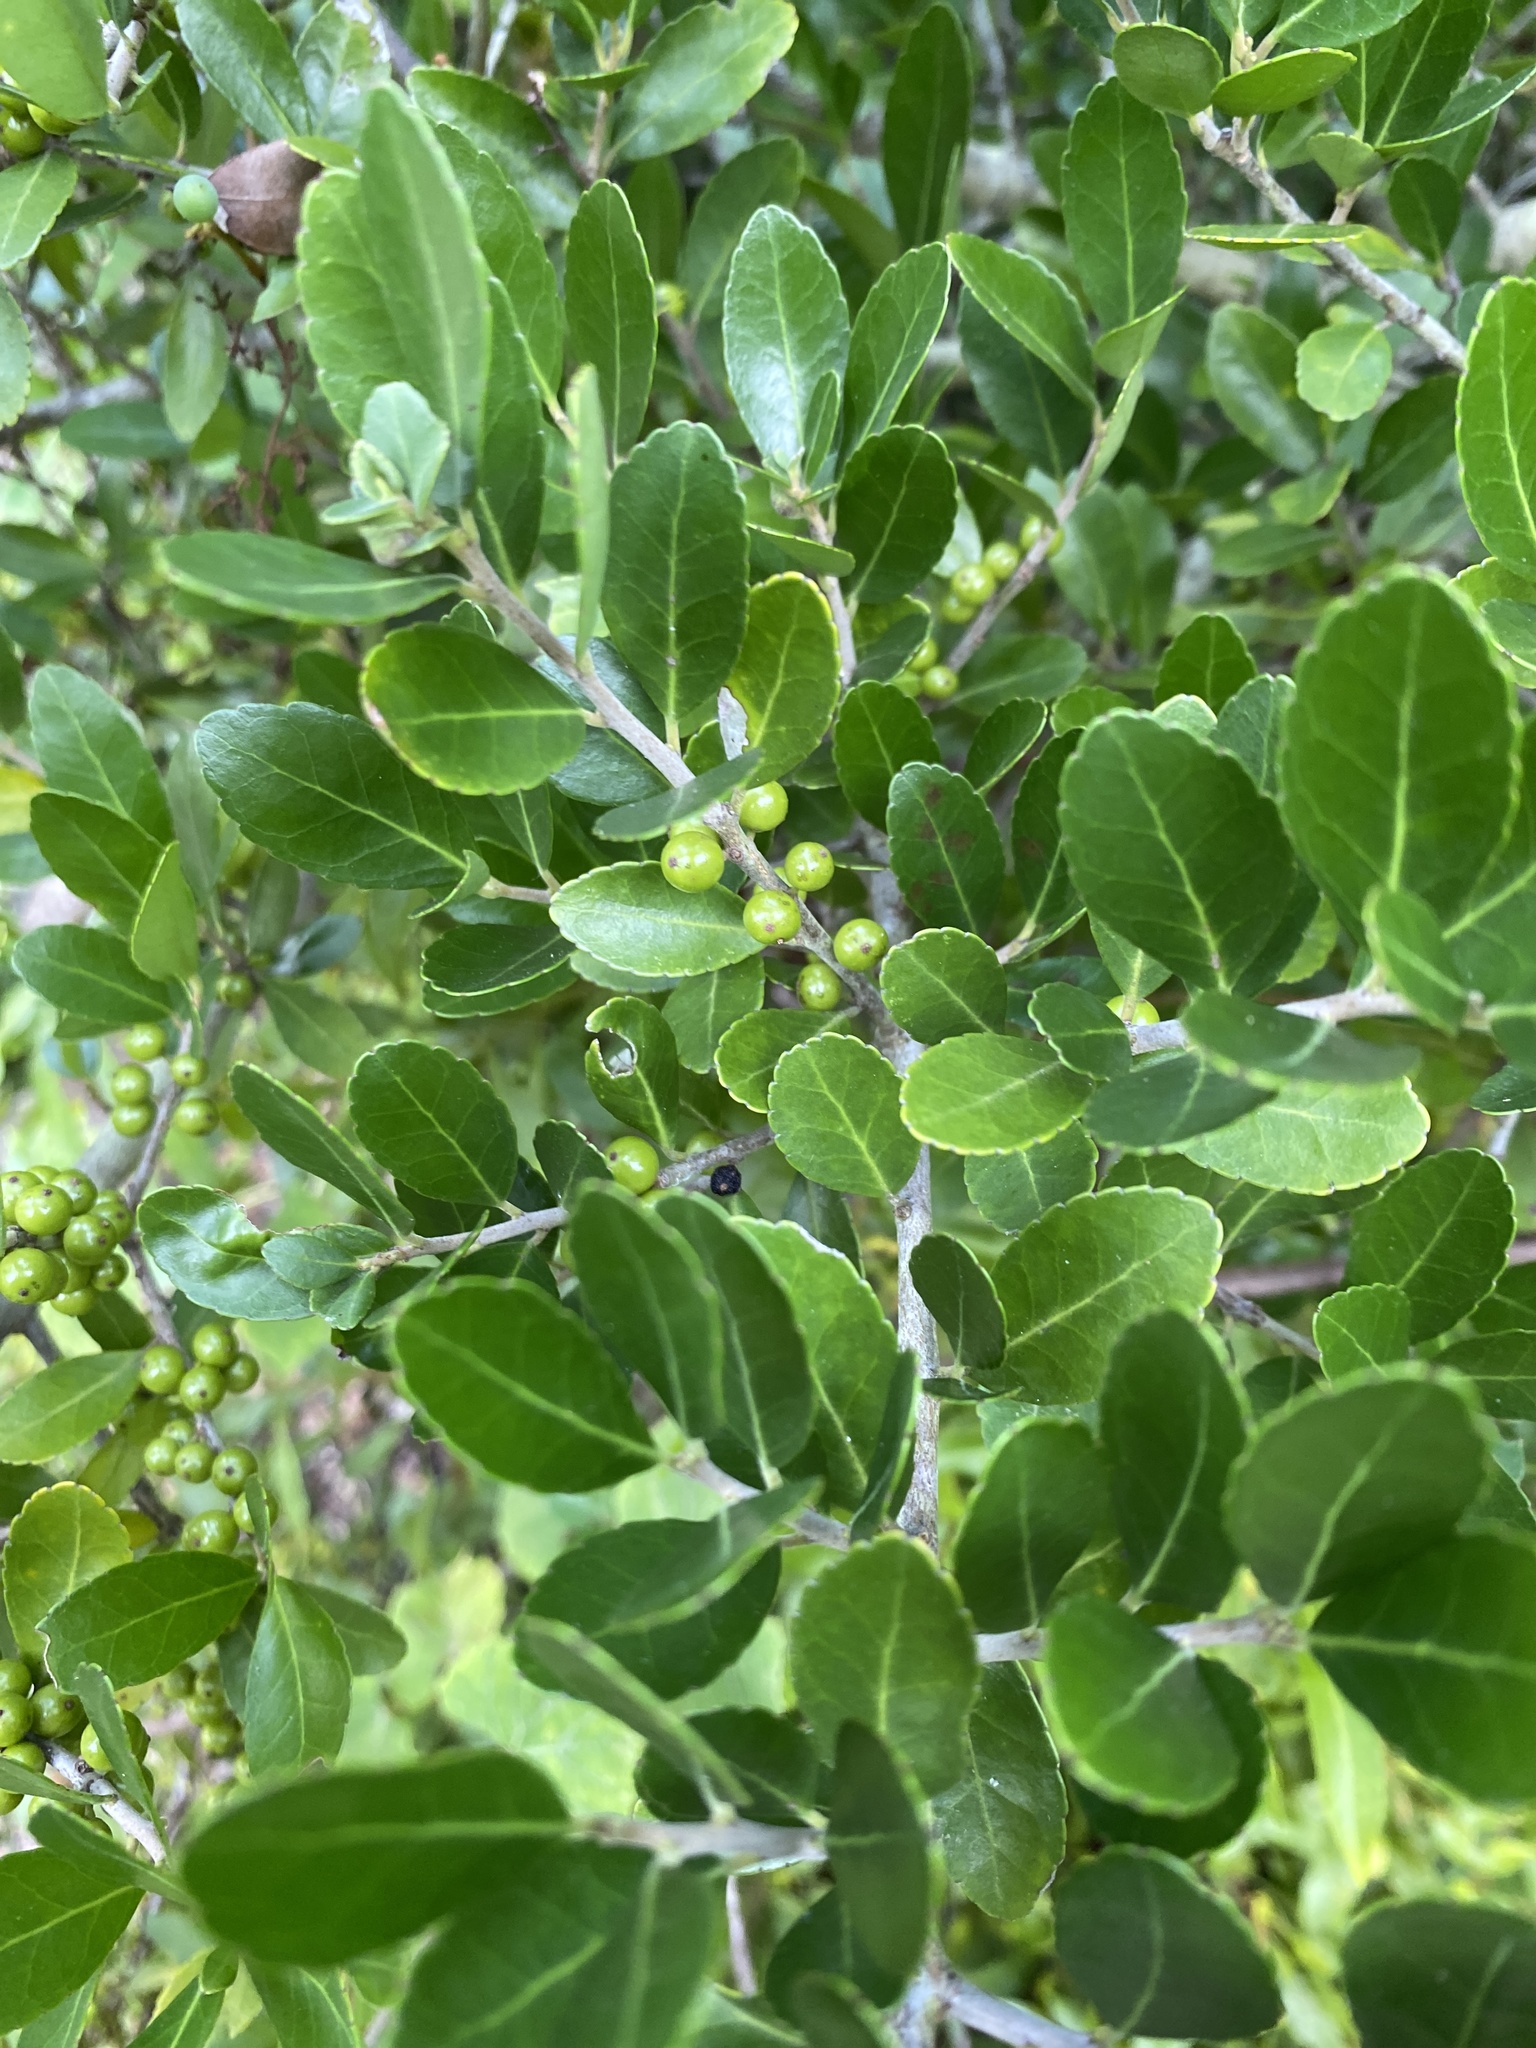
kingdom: Plantae
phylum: Tracheophyta
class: Magnoliopsida
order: Aquifoliales
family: Aquifoliaceae
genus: Ilex
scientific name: Ilex vomitoria
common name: Yaupon holly
